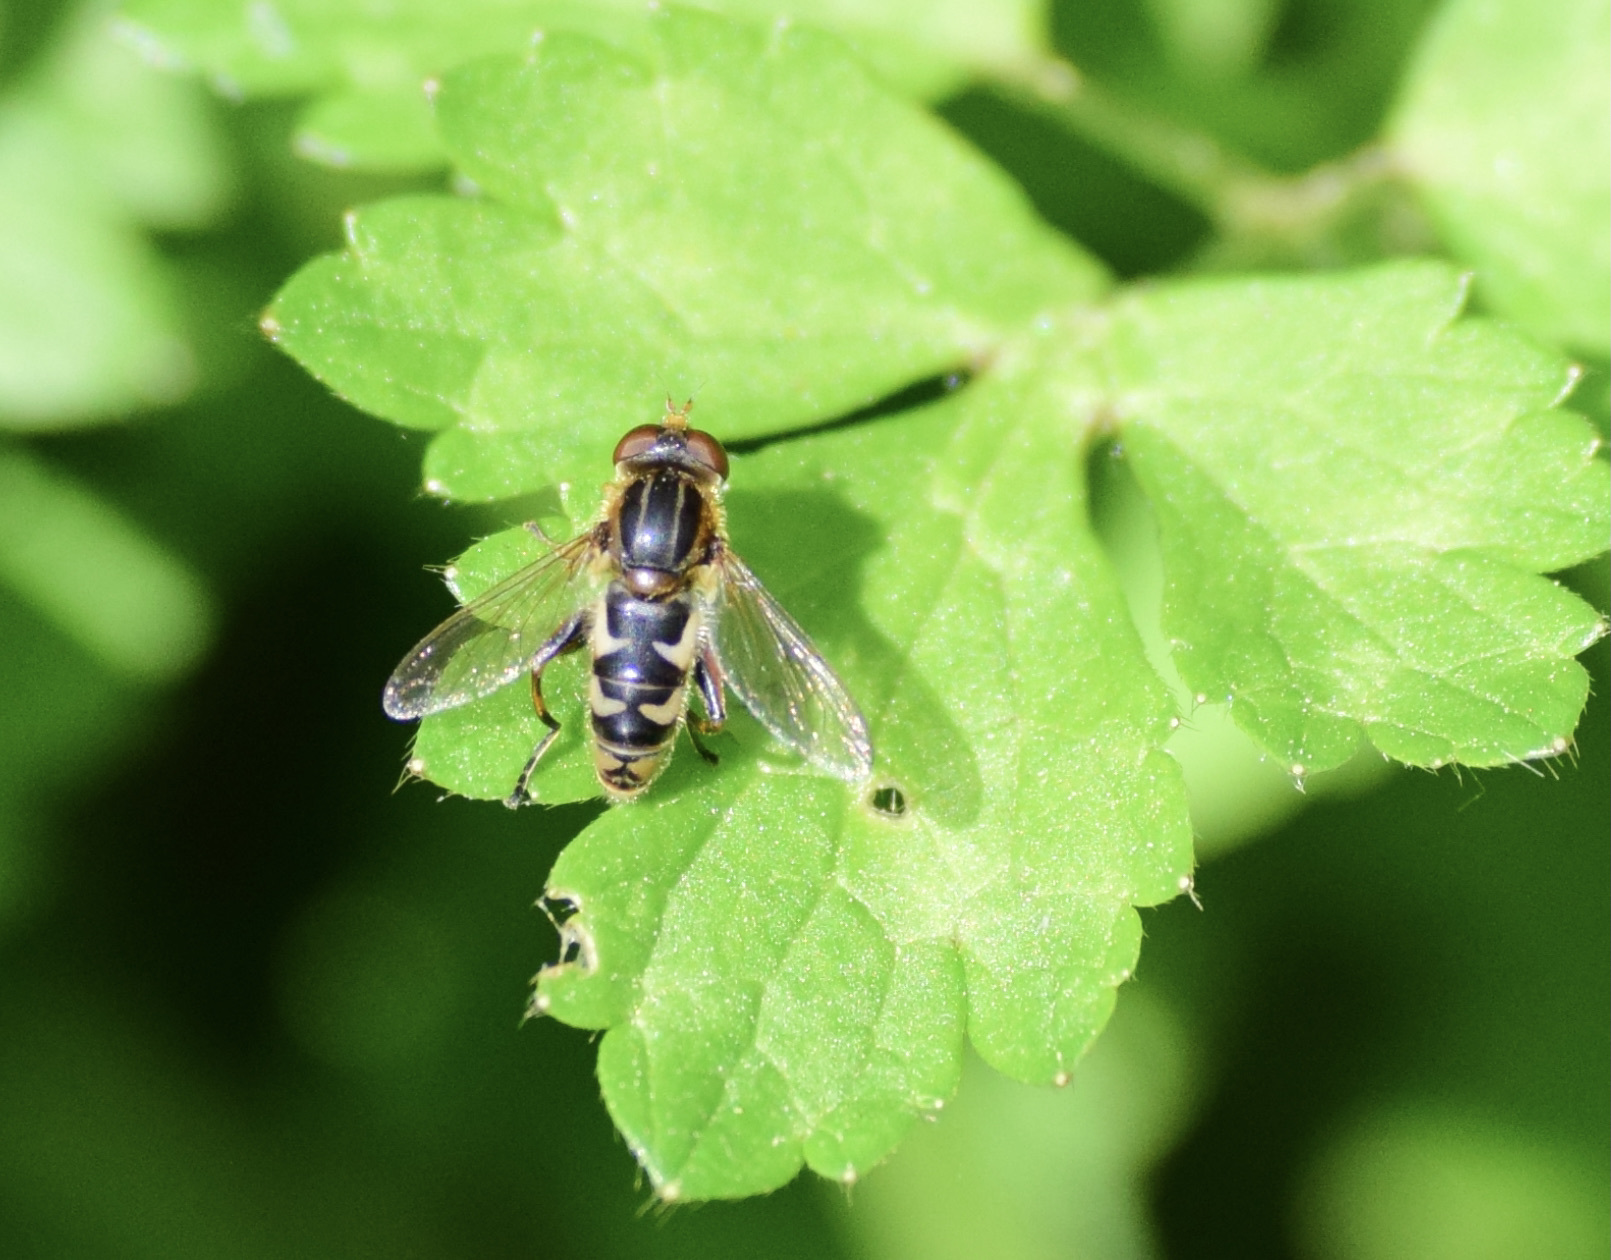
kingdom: Animalia
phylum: Arthropoda
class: Insecta
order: Diptera
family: Syrphidae
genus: Anasimyia
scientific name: Anasimyia
